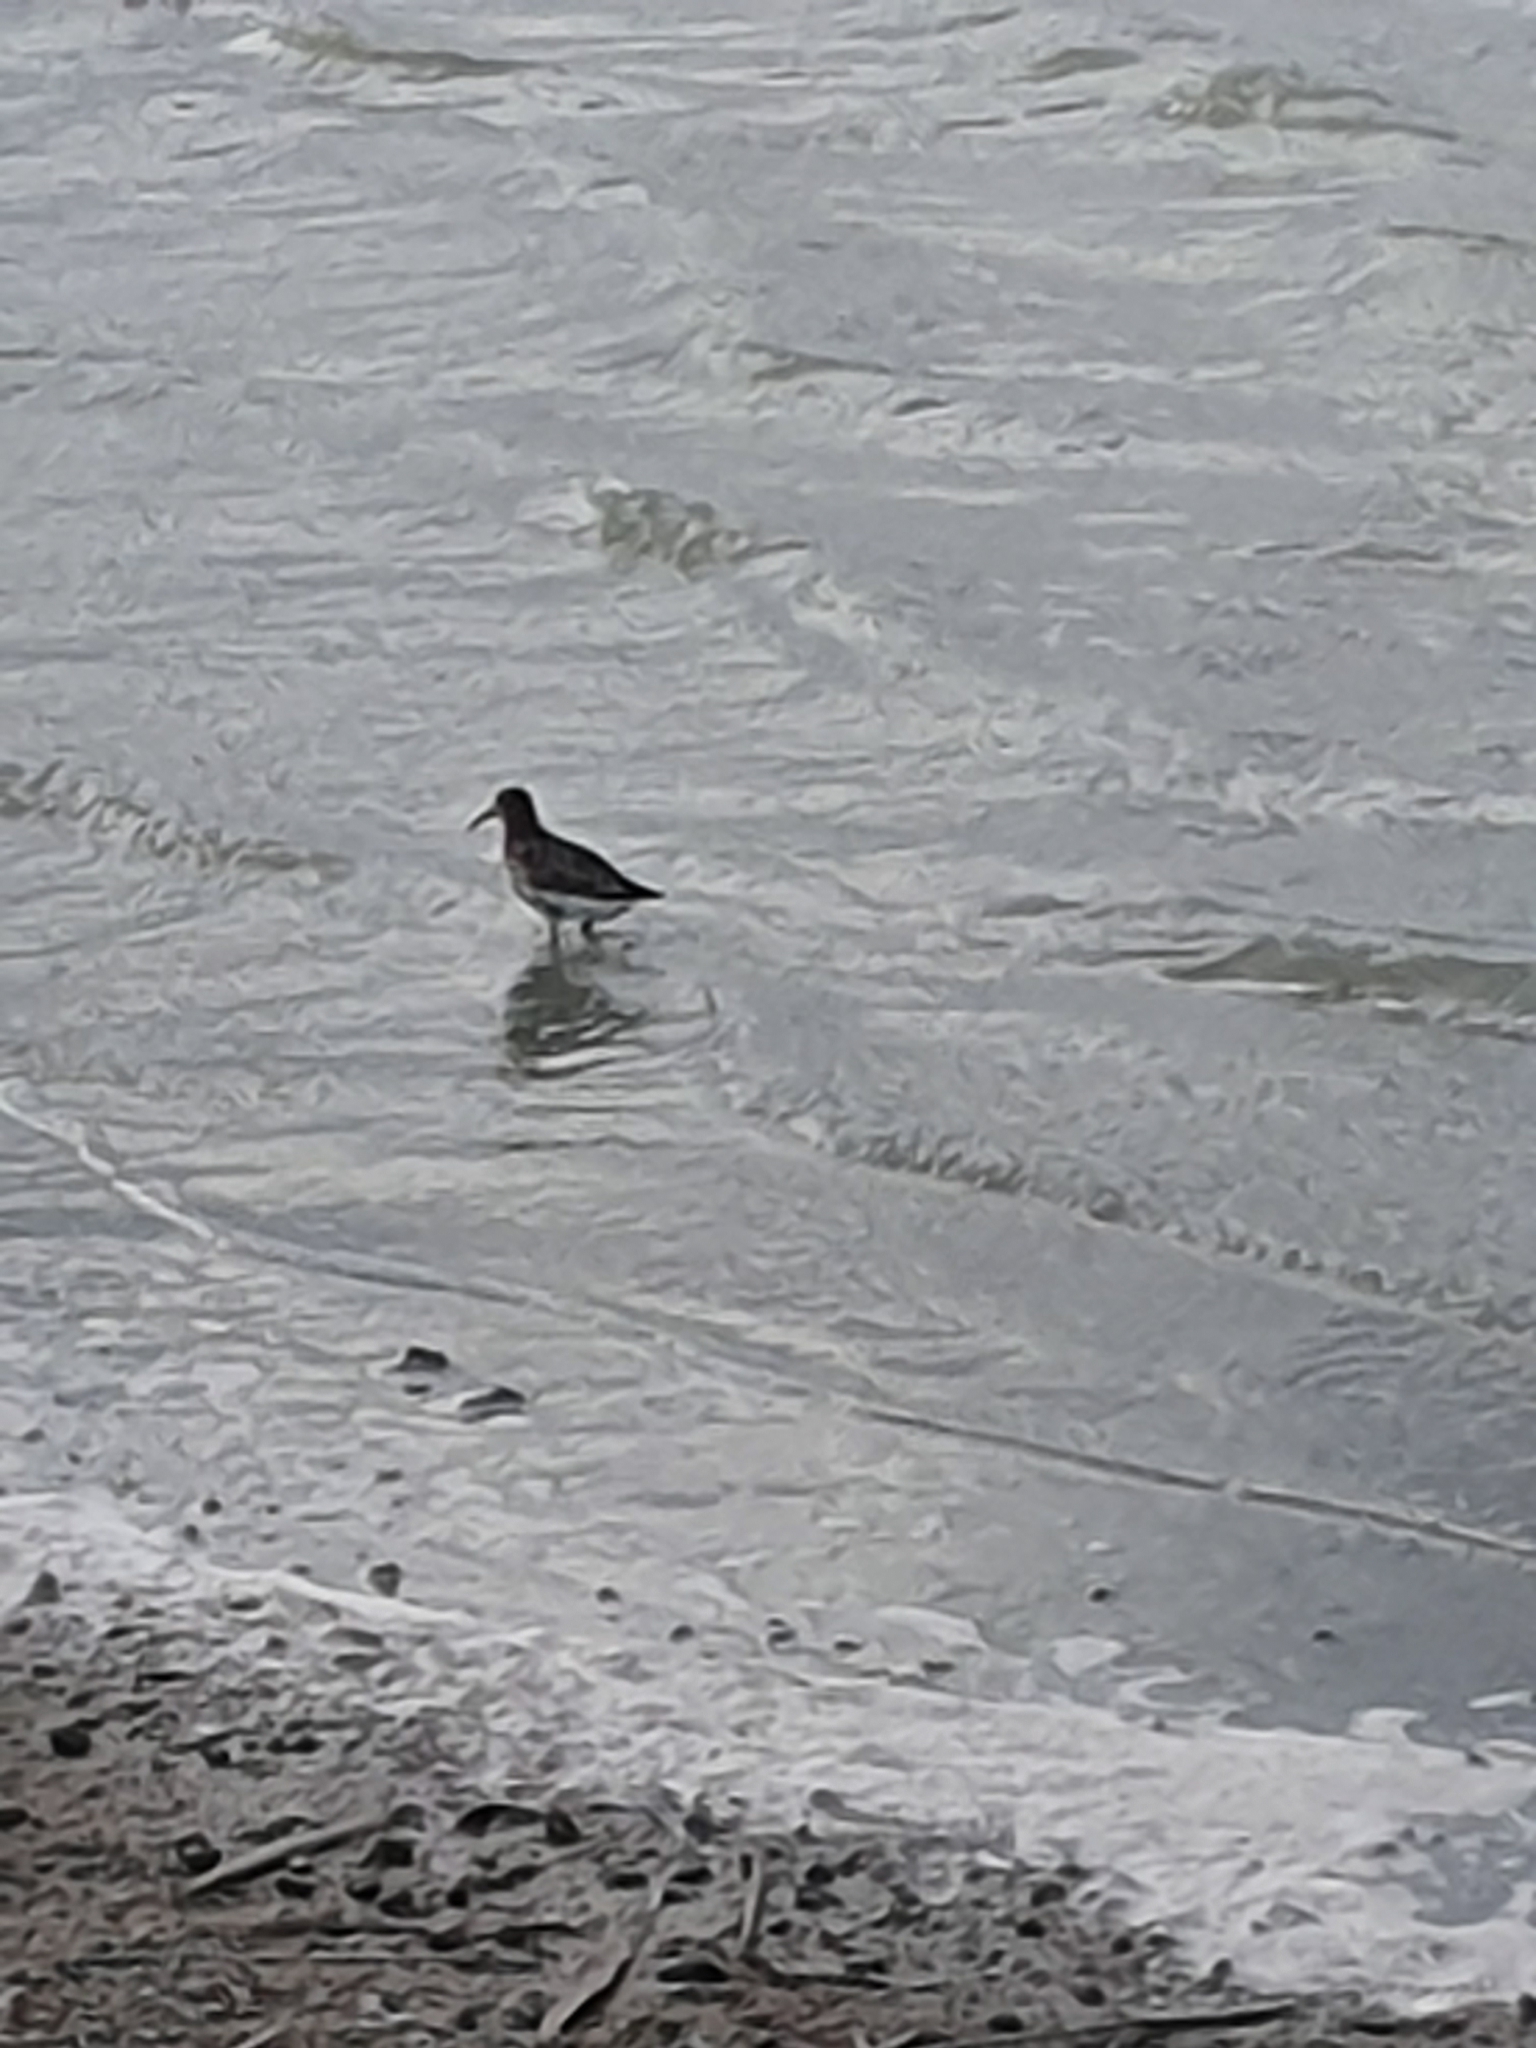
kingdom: Animalia
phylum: Chordata
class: Aves
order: Charadriiformes
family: Scolopacidae
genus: Calidris
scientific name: Calidris alpina
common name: Dunlin
